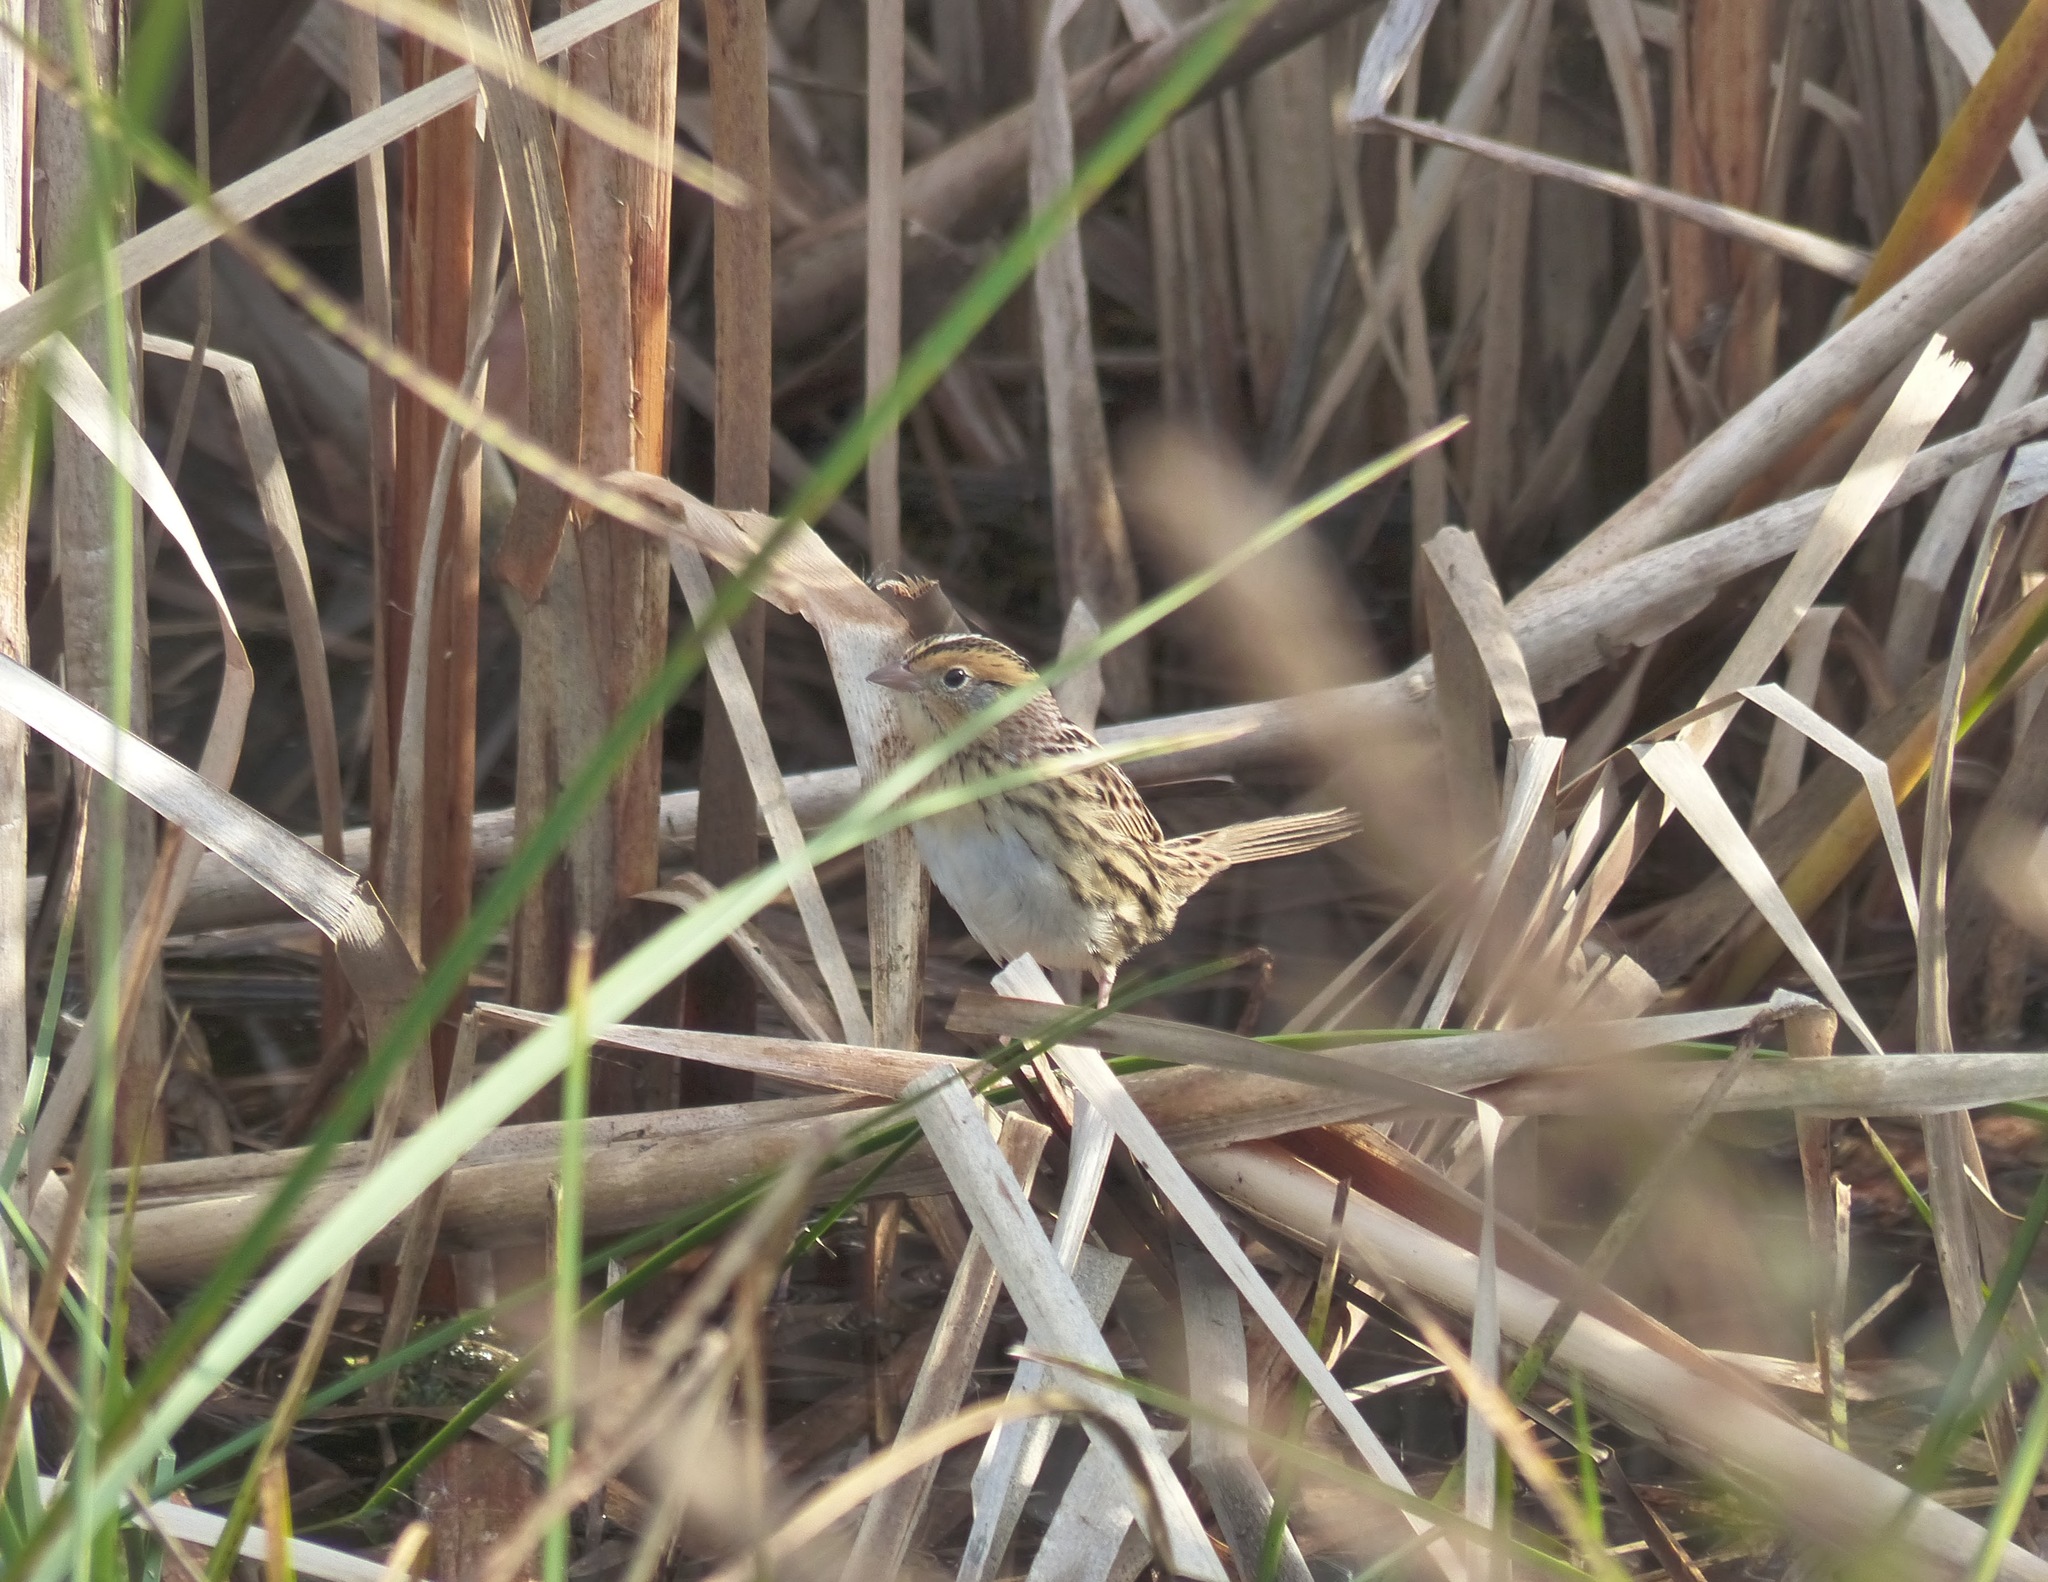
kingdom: Animalia
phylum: Chordata
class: Aves
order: Passeriformes
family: Passerellidae
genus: Ammospiza
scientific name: Ammospiza leconteii
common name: Le conte's sparrow
